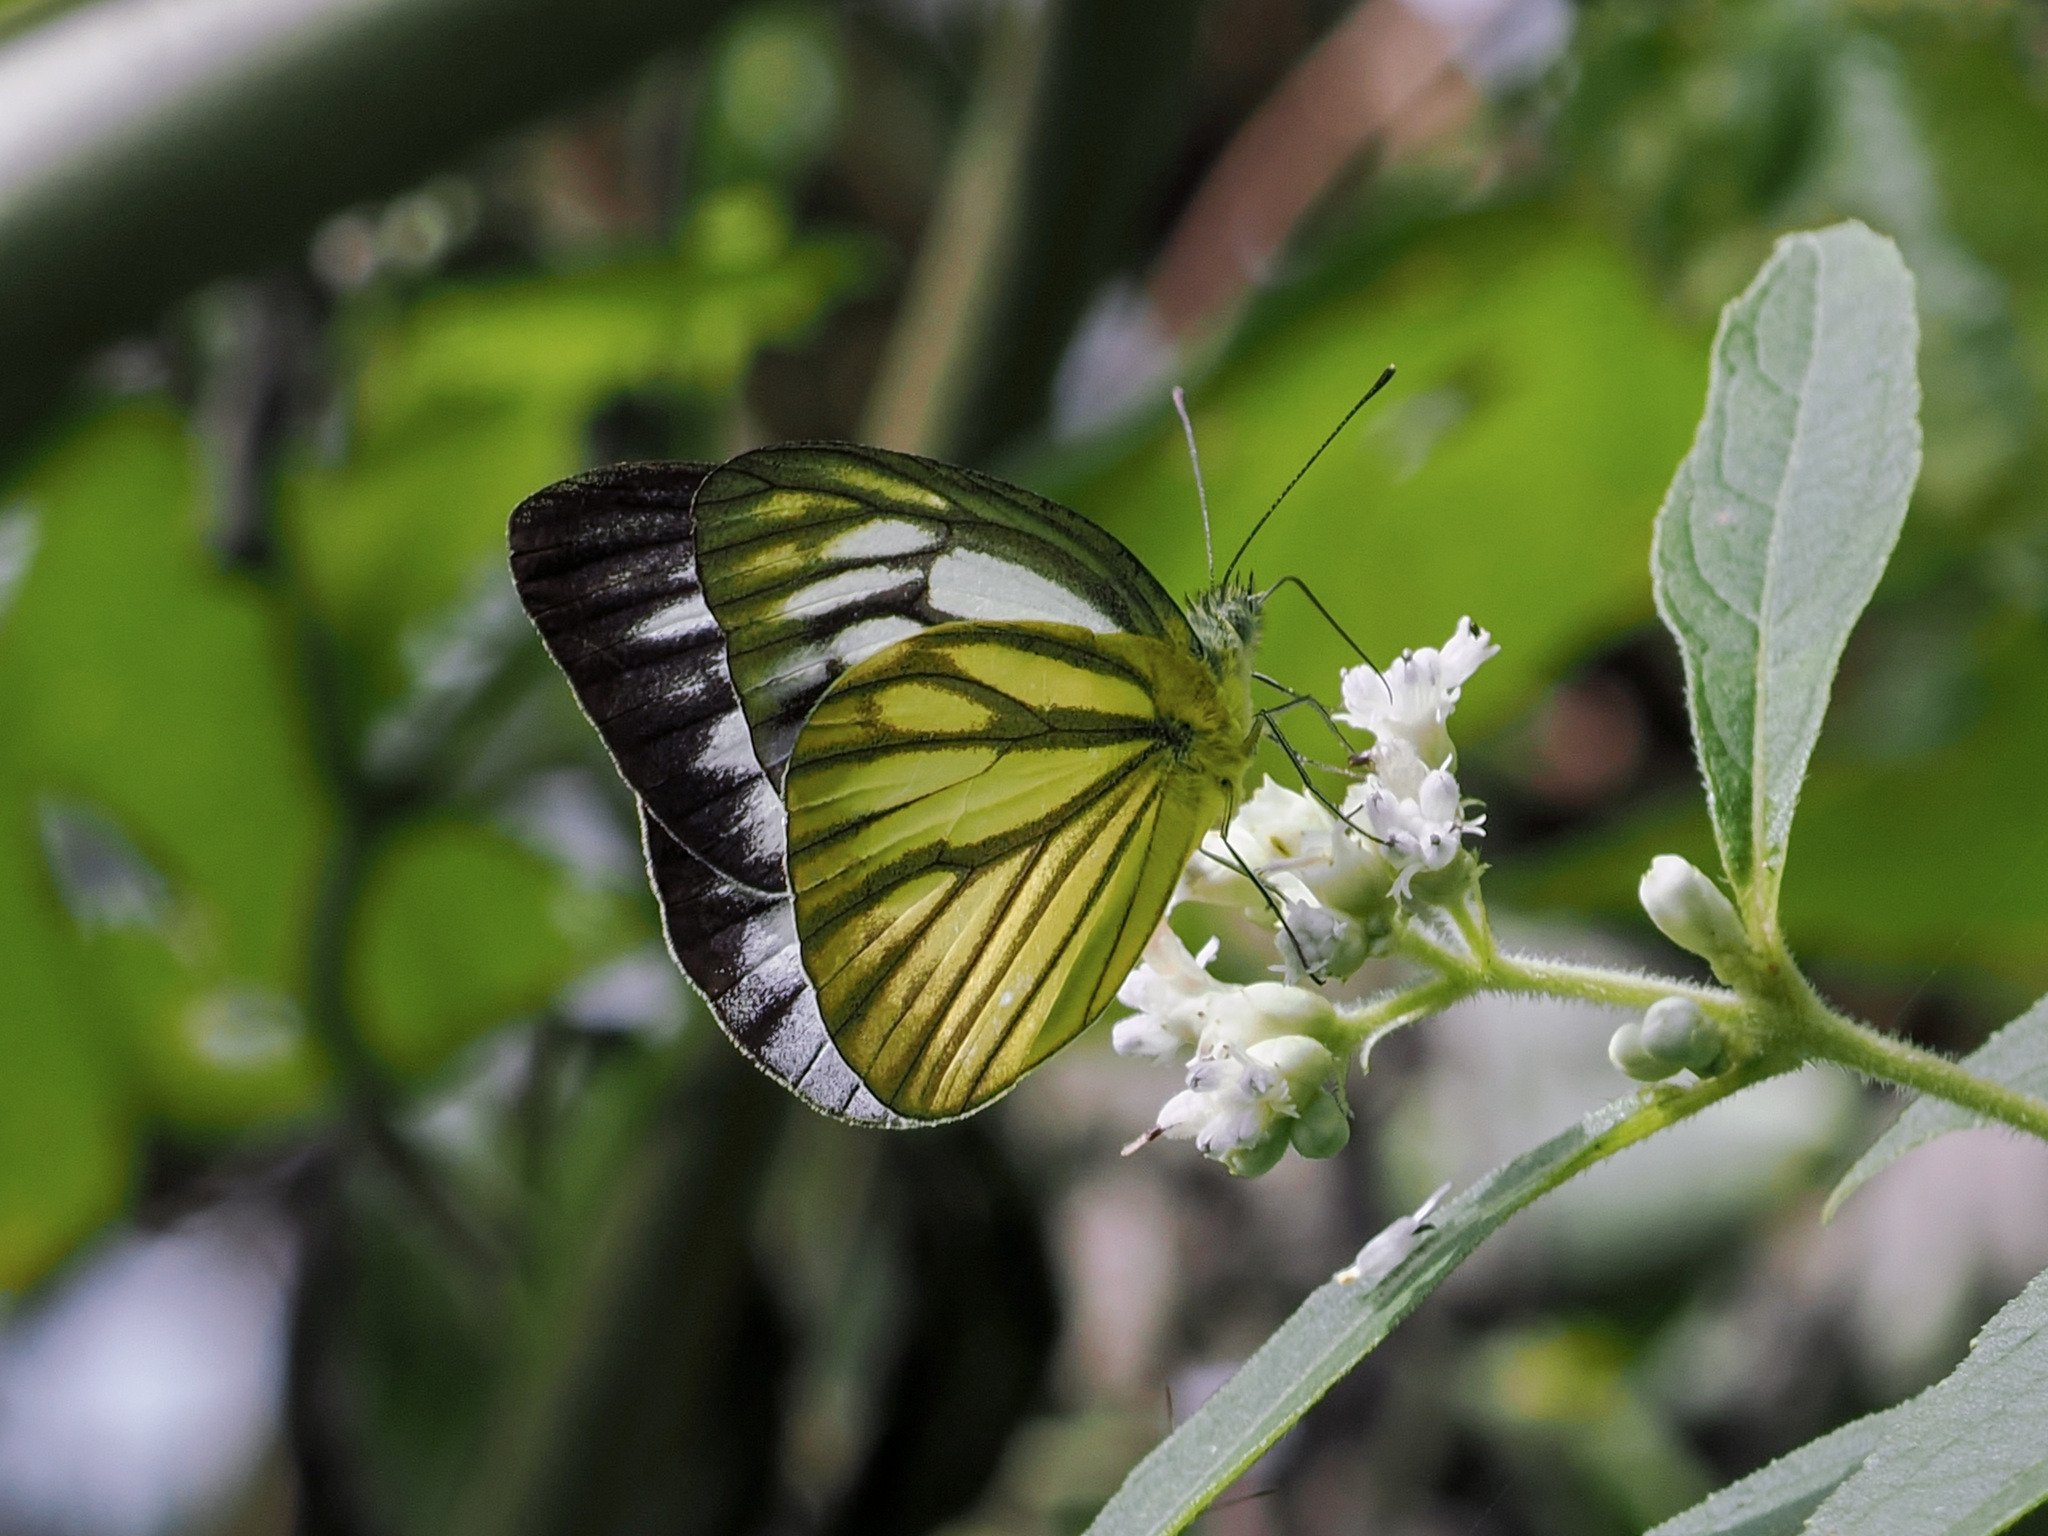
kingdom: Animalia
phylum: Arthropoda
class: Insecta
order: Lepidoptera
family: Pieridae
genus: Cepora
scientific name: Cepora nerissa
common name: Common gull
